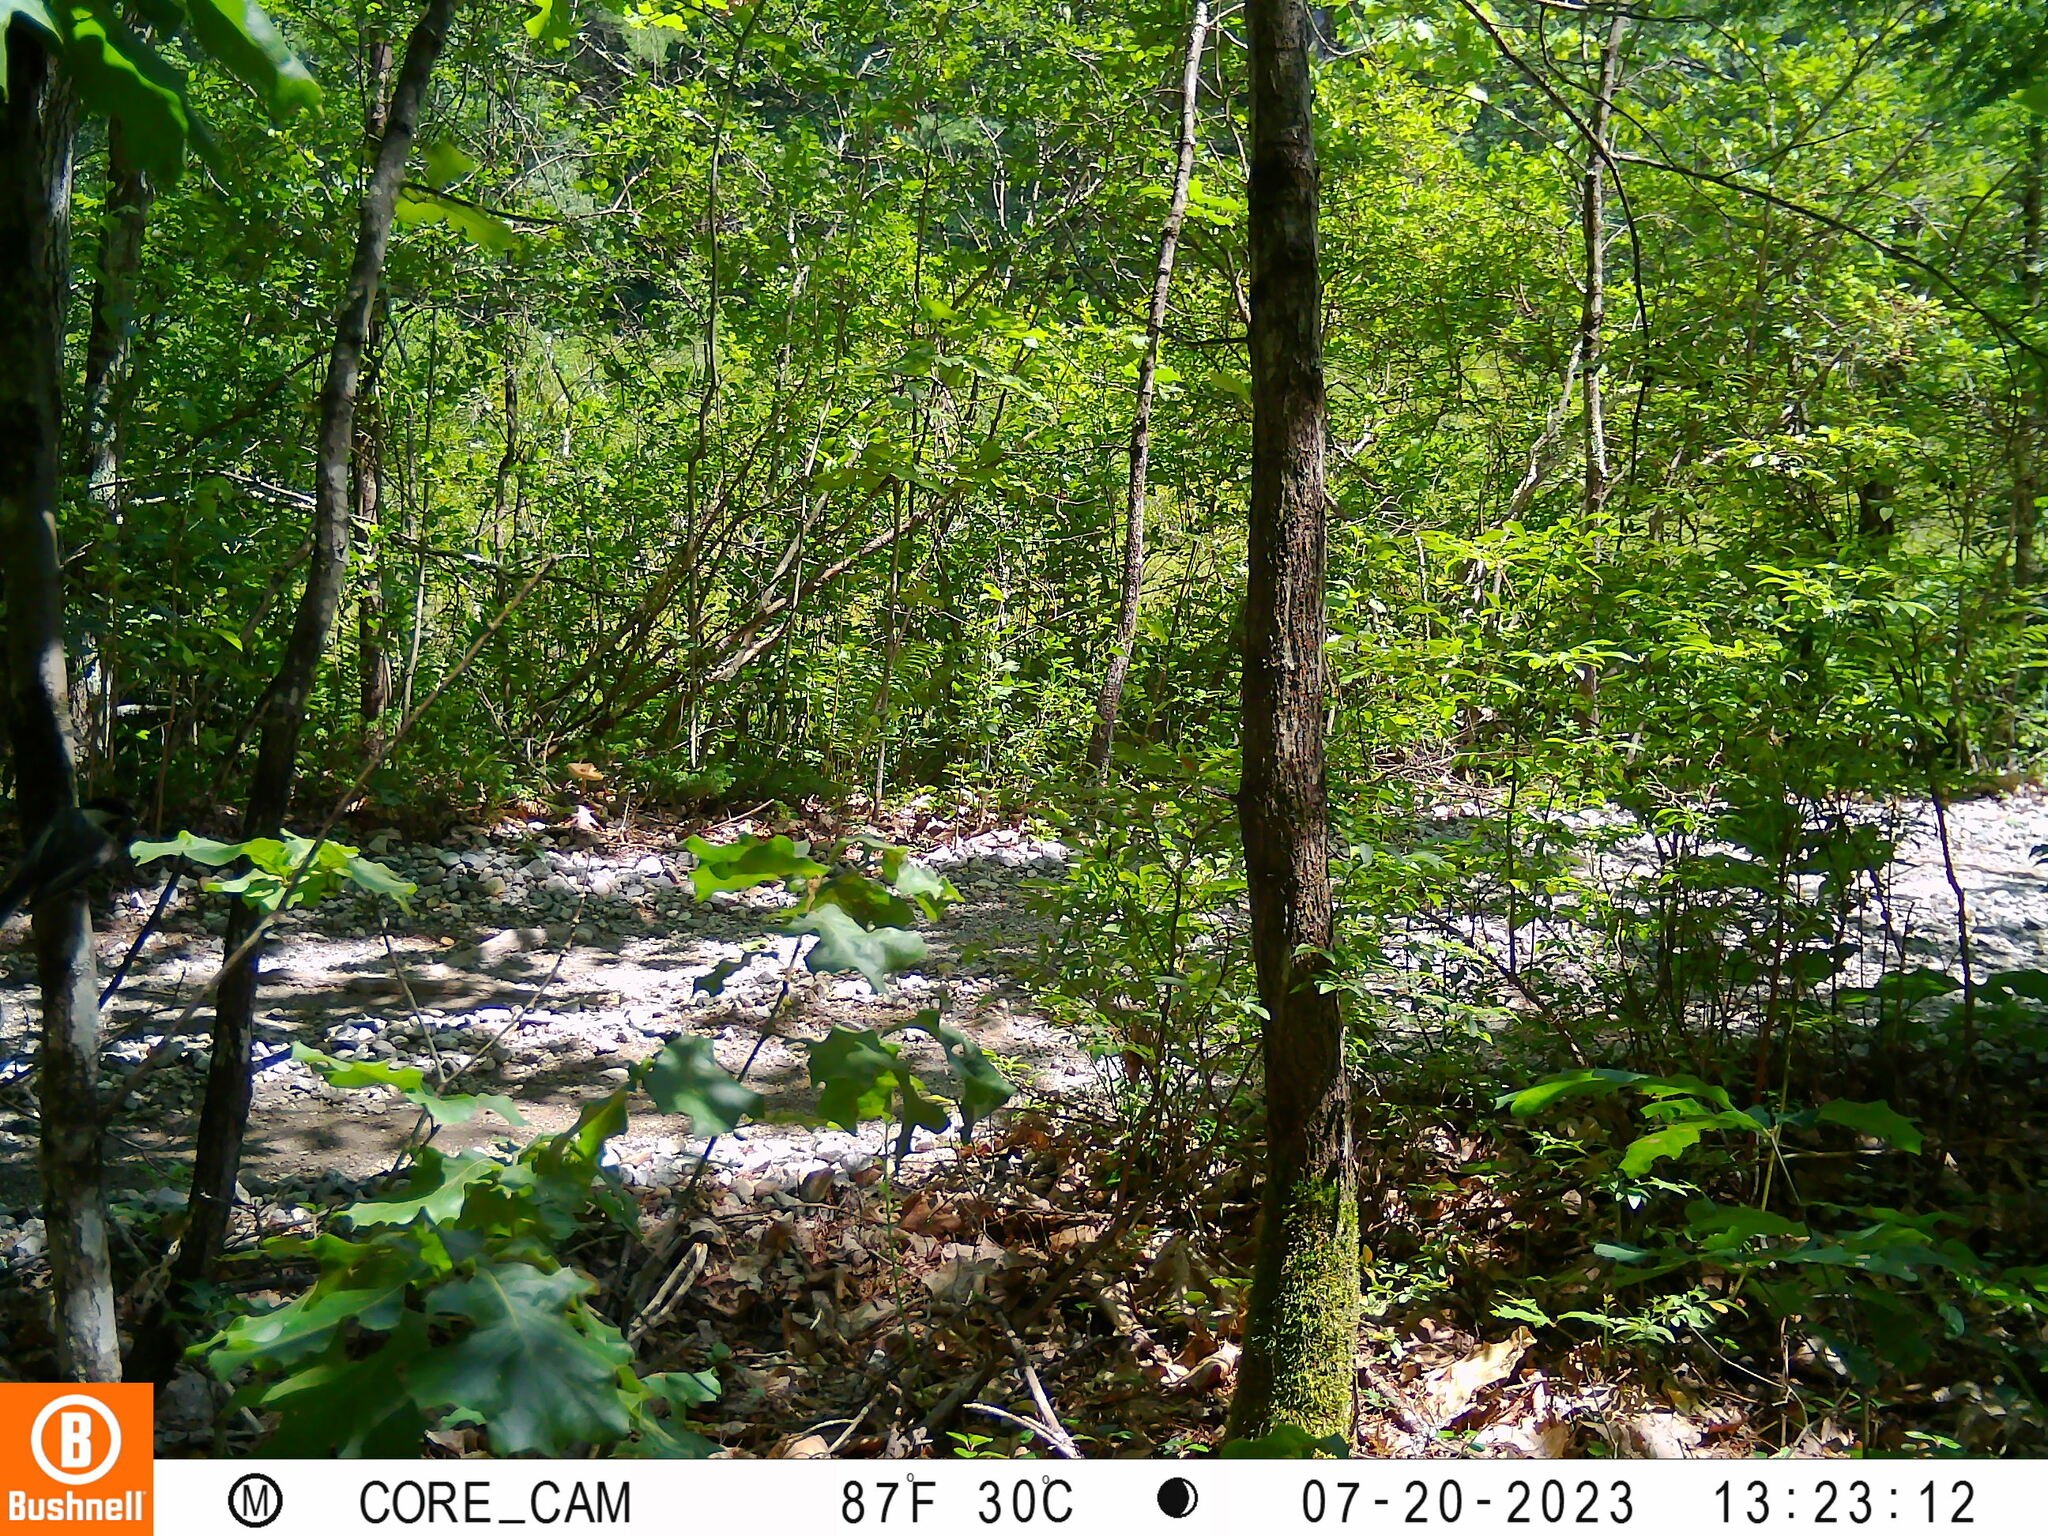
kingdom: Animalia
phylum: Chordata
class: Aves
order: Passeriformes
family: Paridae
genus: Poecile
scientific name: Poecile atricapillus
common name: Black-capped chickadee
